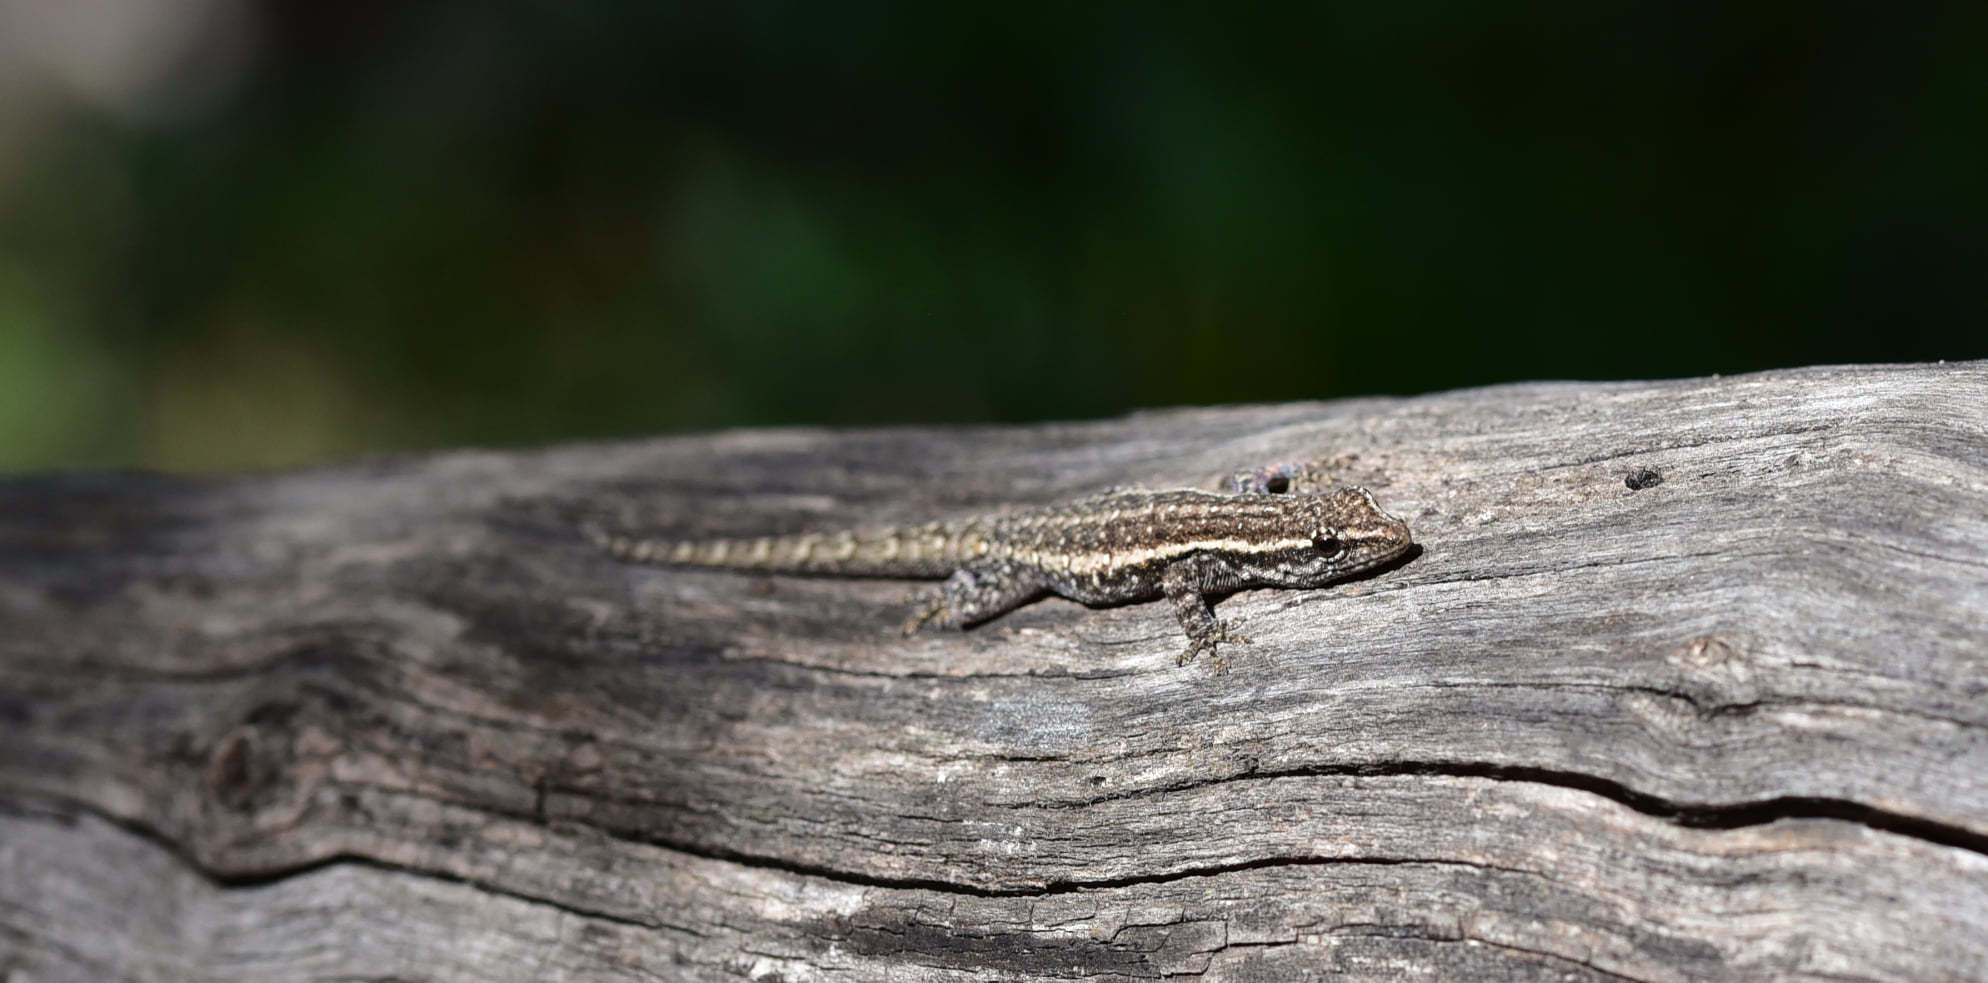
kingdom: Animalia
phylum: Chordata
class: Squamata
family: Gekkonidae
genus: Lygodactylus
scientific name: Lygodactylus capensis
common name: Cape dwarf gecko
